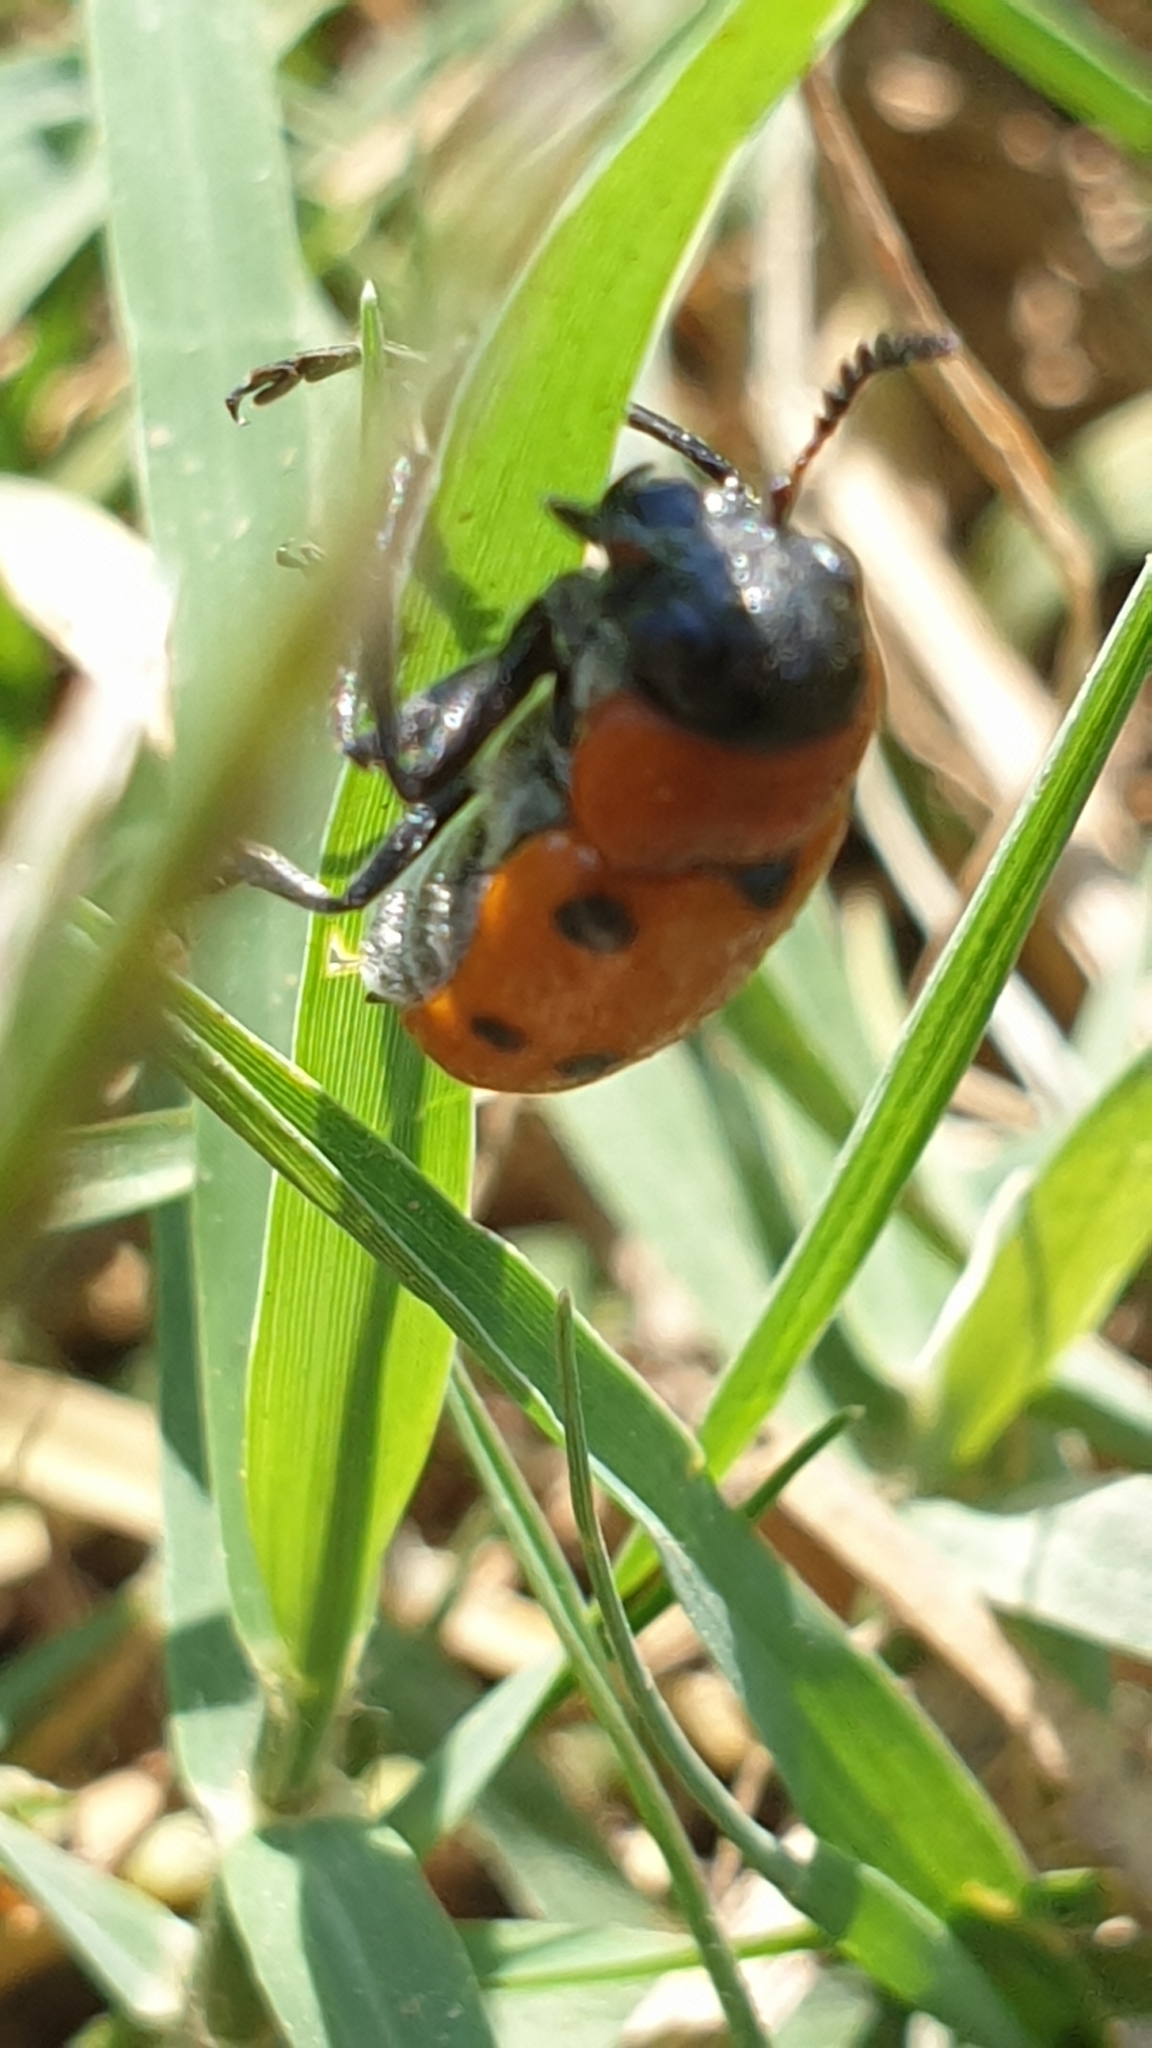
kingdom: Animalia
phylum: Arthropoda
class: Insecta
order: Coleoptera
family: Chrysomelidae
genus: Tituboea
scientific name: Tituboea sexmaculata
